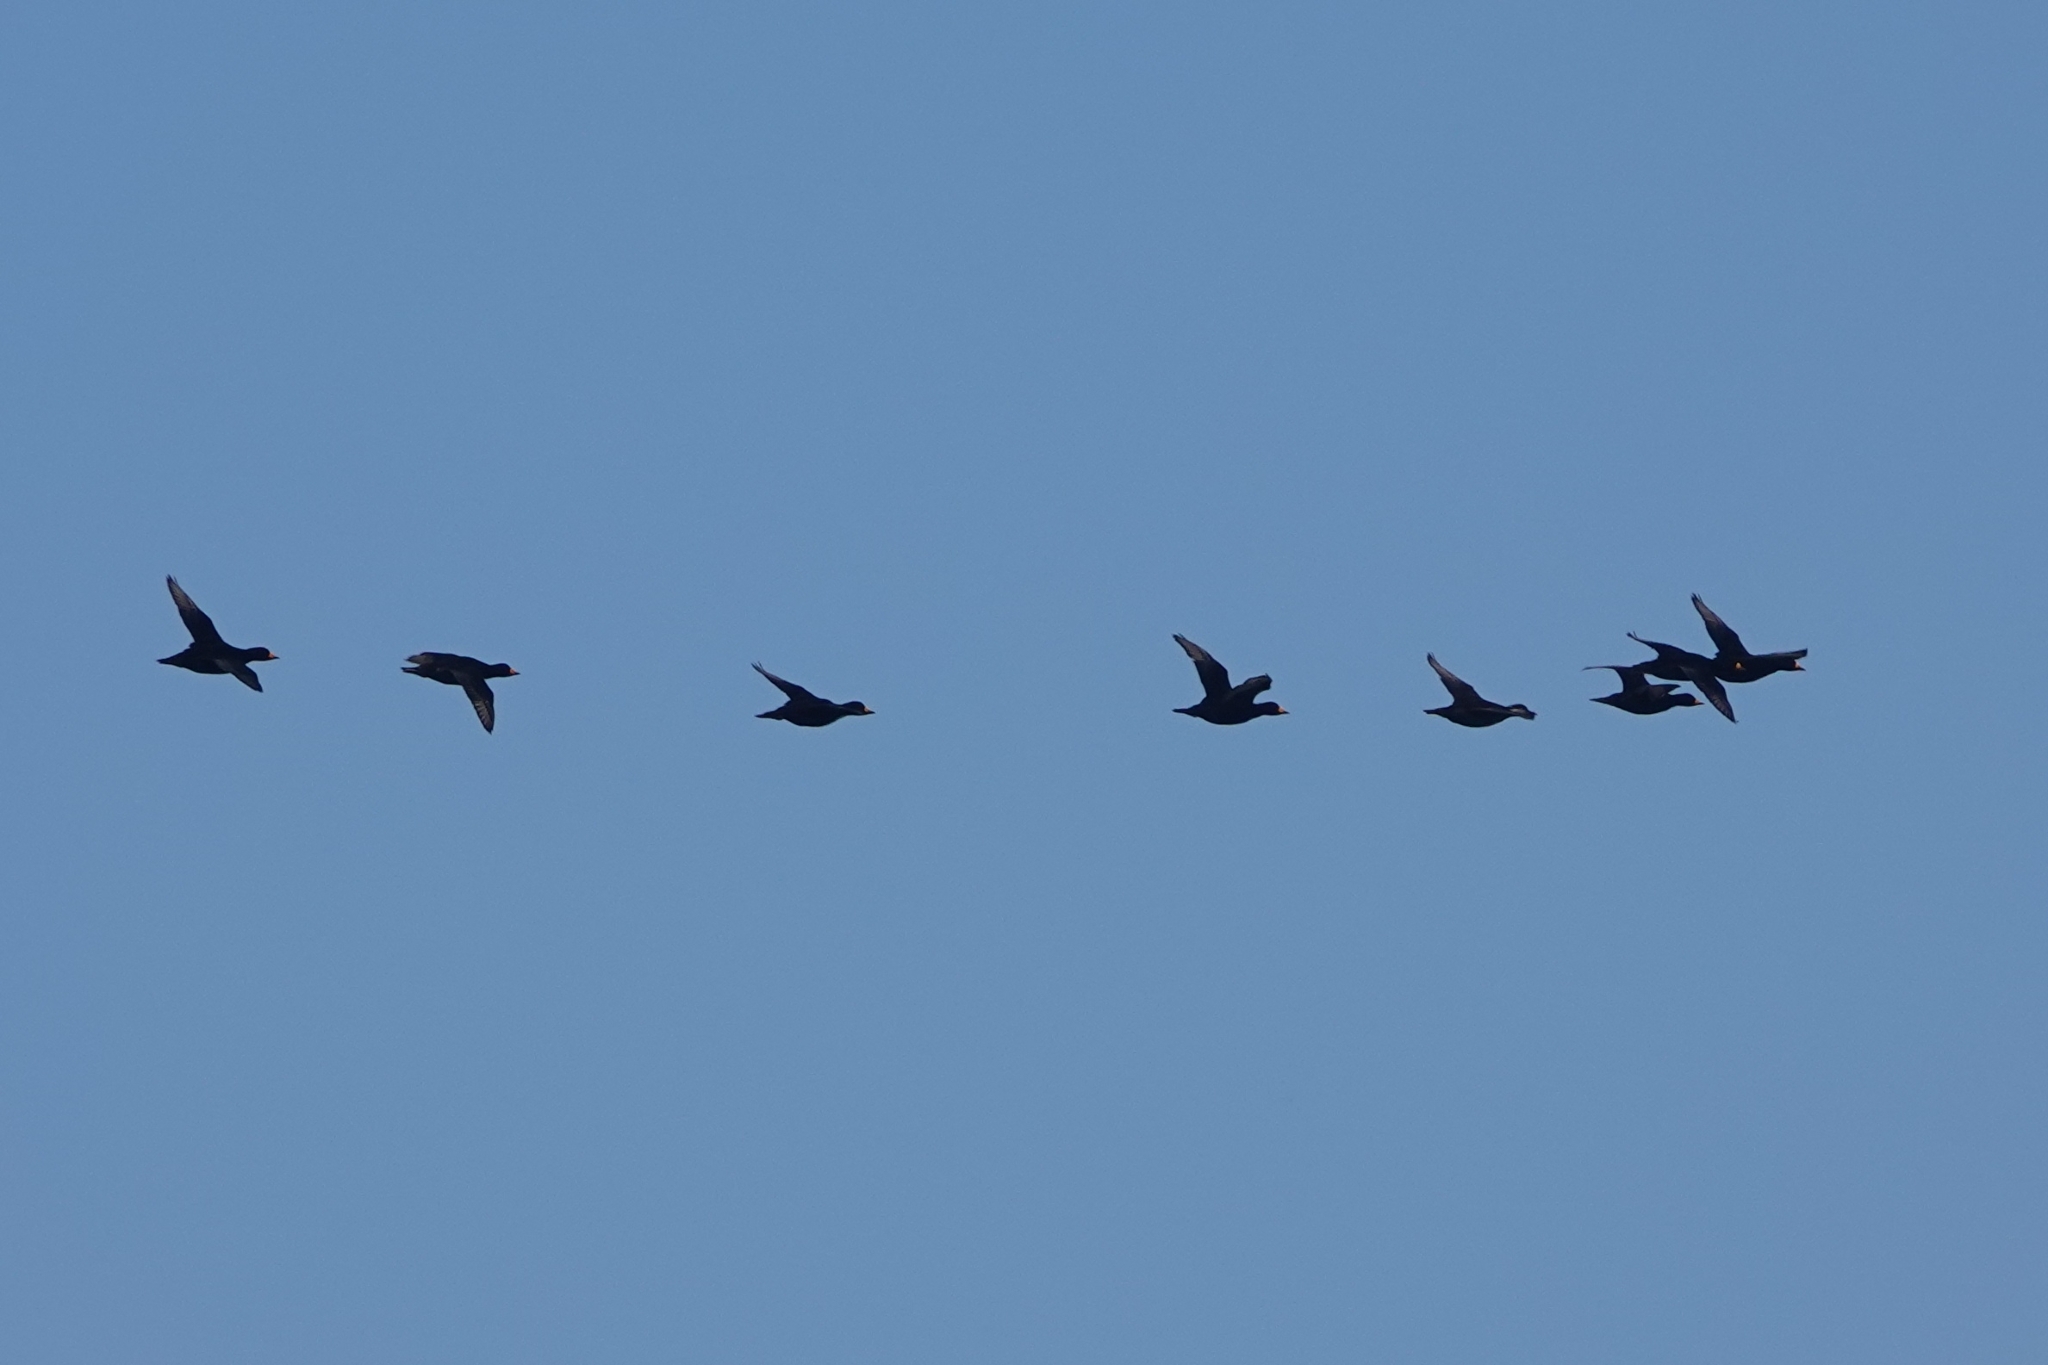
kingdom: Animalia
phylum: Chordata
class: Aves
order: Anseriformes
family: Anatidae
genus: Melanitta
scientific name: Melanitta americana
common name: Black scoter
